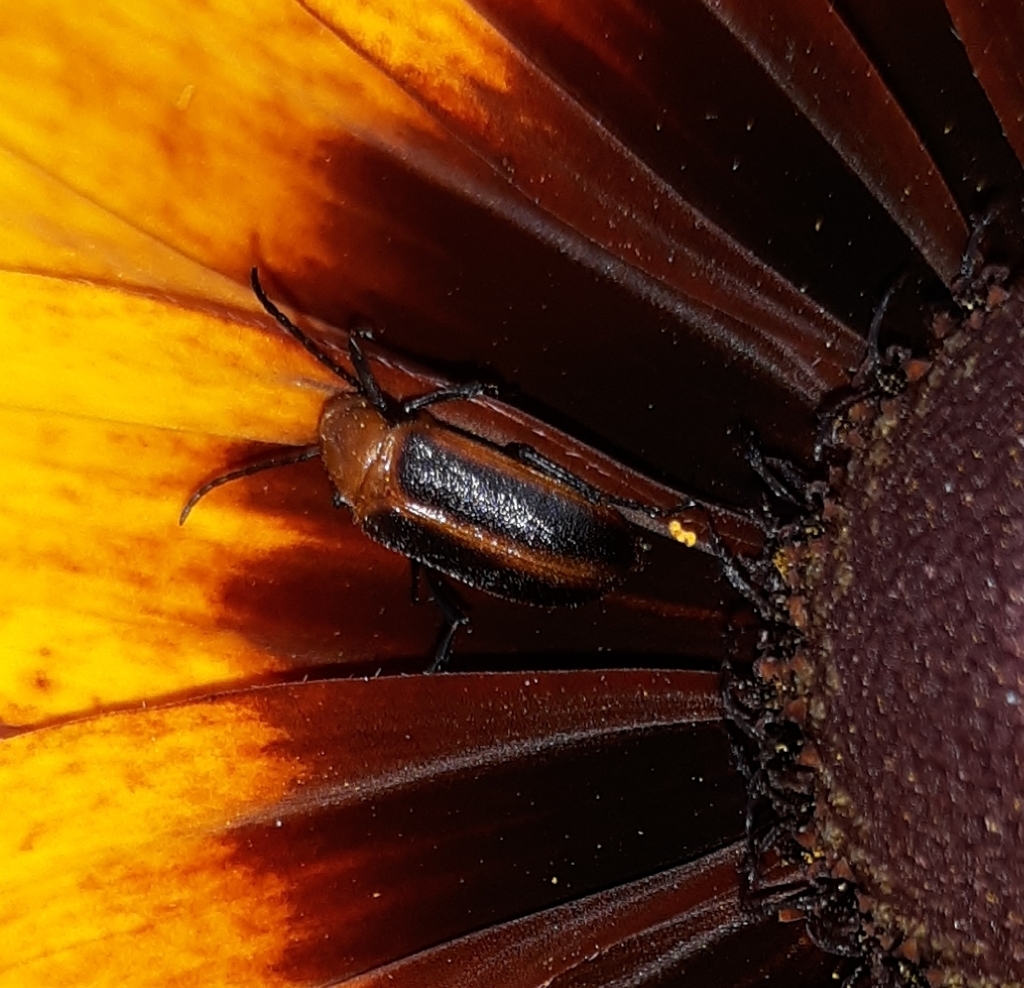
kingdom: Animalia
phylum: Arthropoda
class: Insecta
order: Coleoptera
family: Meloidae
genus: Zonitis
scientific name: Zonitis vittigera
